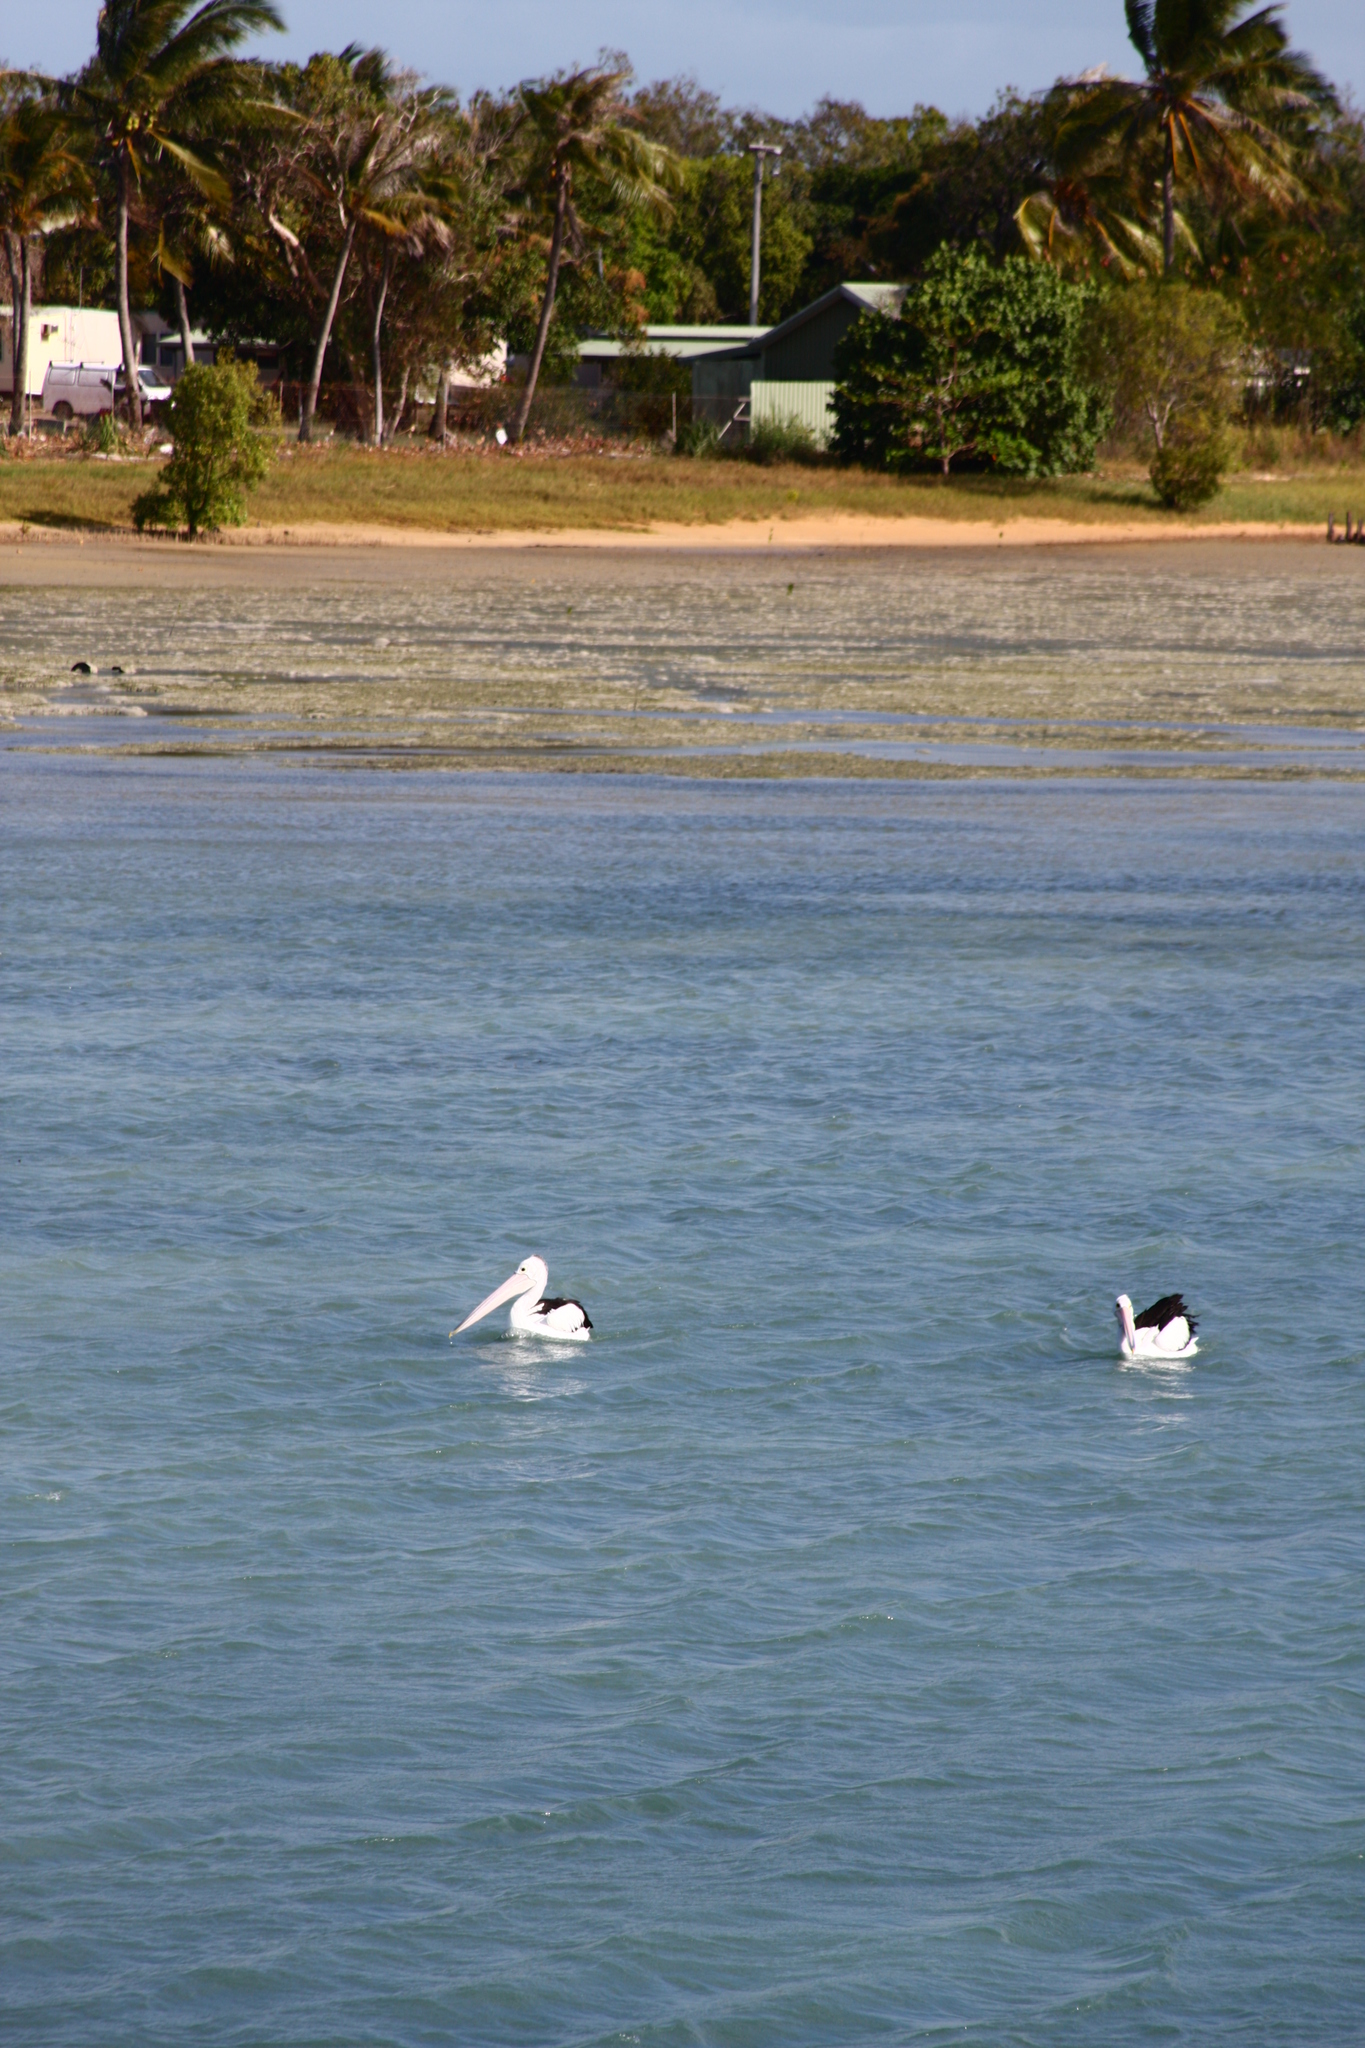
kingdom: Animalia
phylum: Chordata
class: Aves
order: Pelecaniformes
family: Pelecanidae
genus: Pelecanus
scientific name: Pelecanus conspicillatus
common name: Australian pelican
